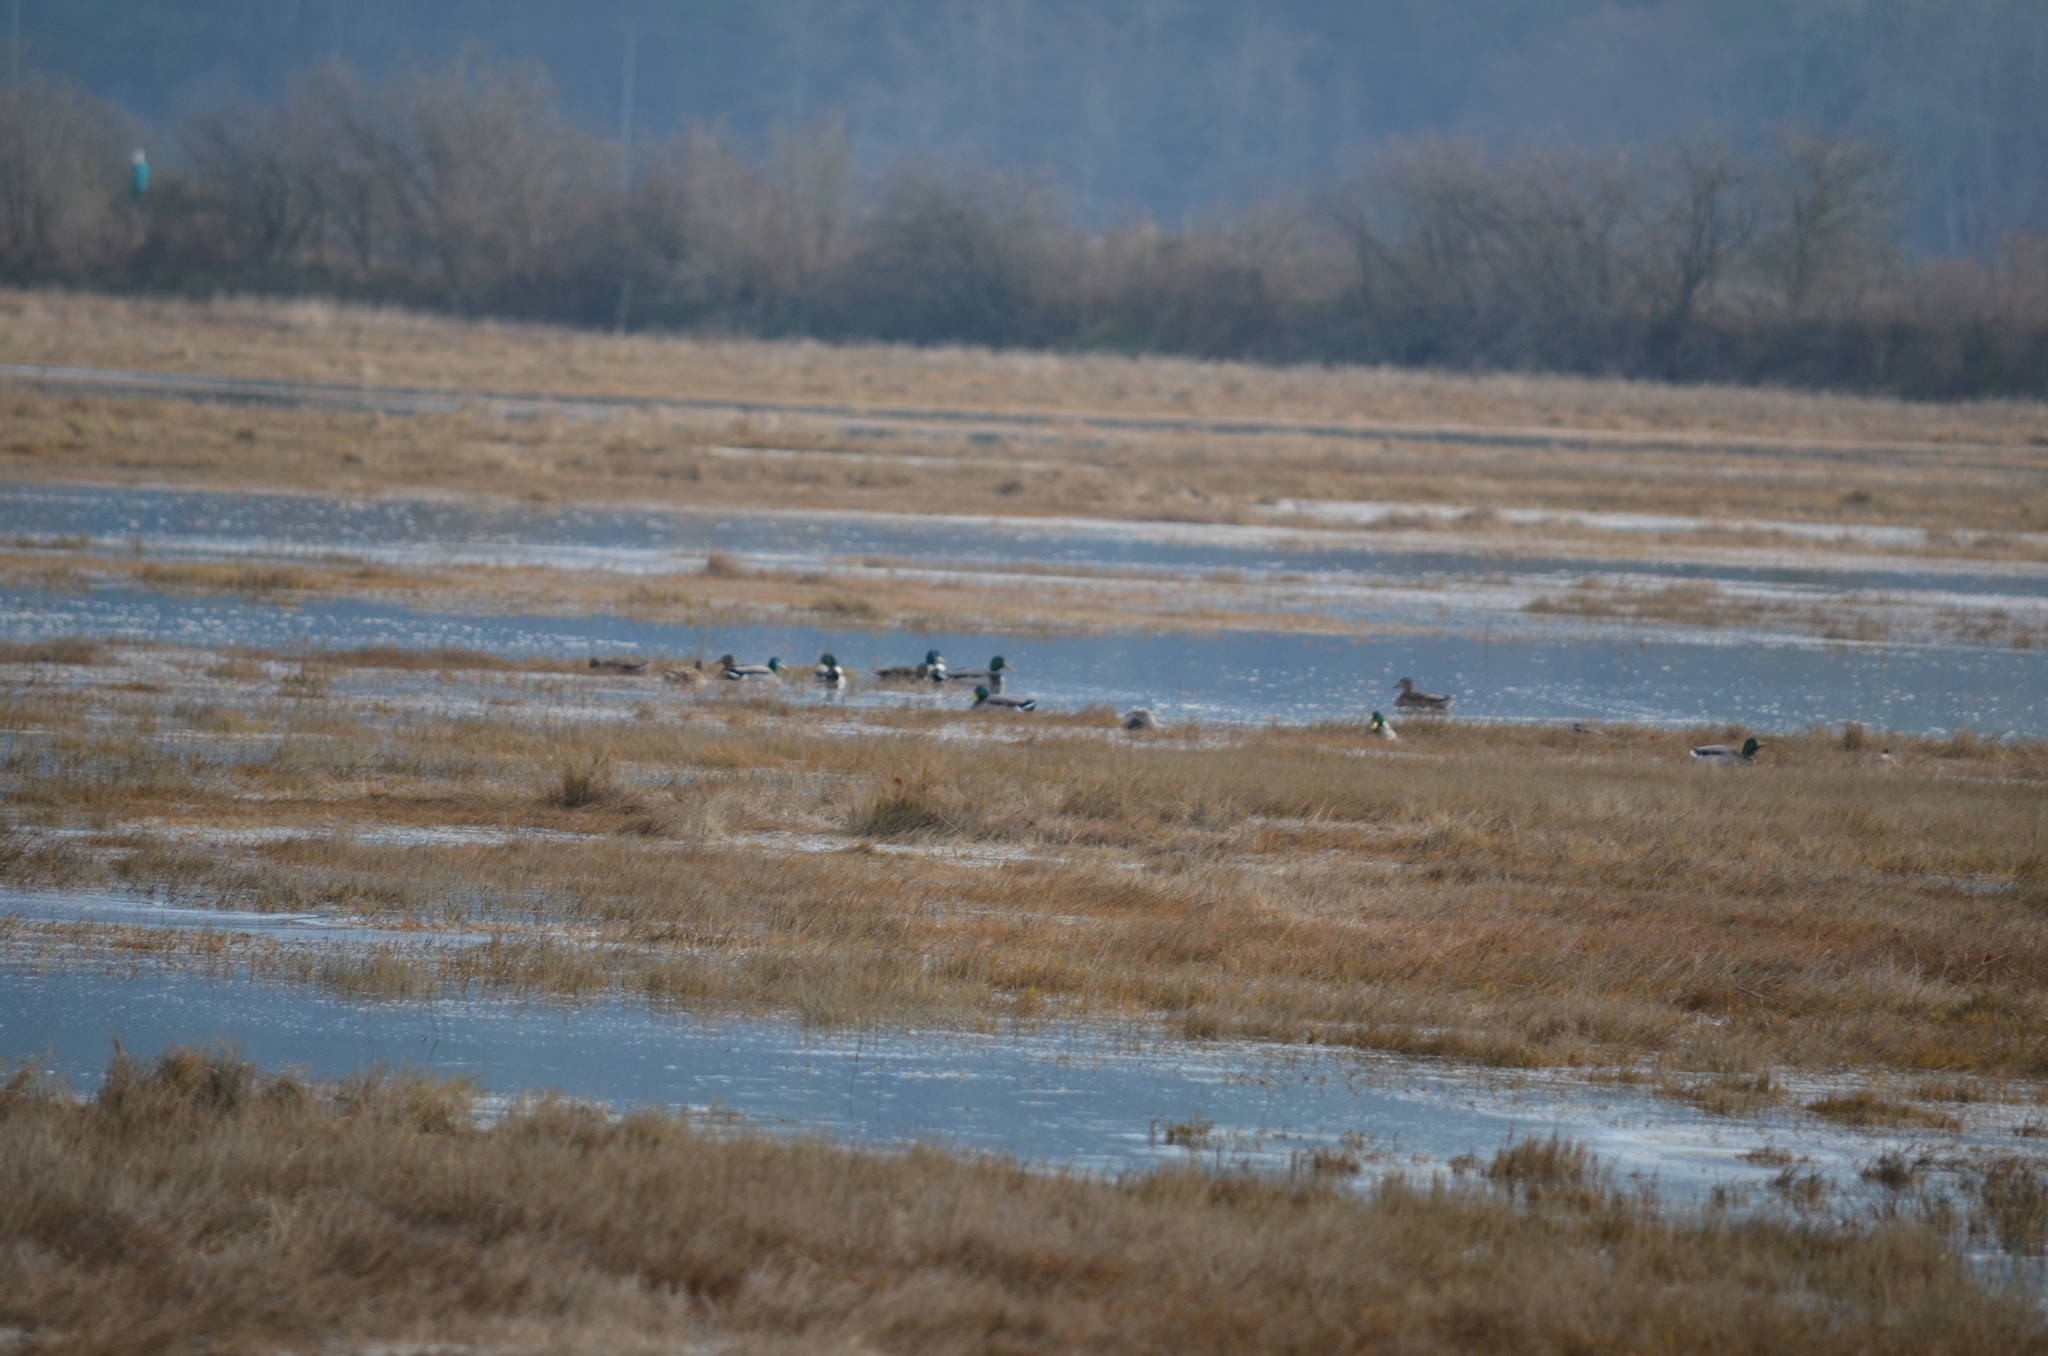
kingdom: Animalia
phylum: Chordata
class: Aves
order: Anseriformes
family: Anatidae
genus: Anas
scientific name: Anas platyrhynchos
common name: Mallard
